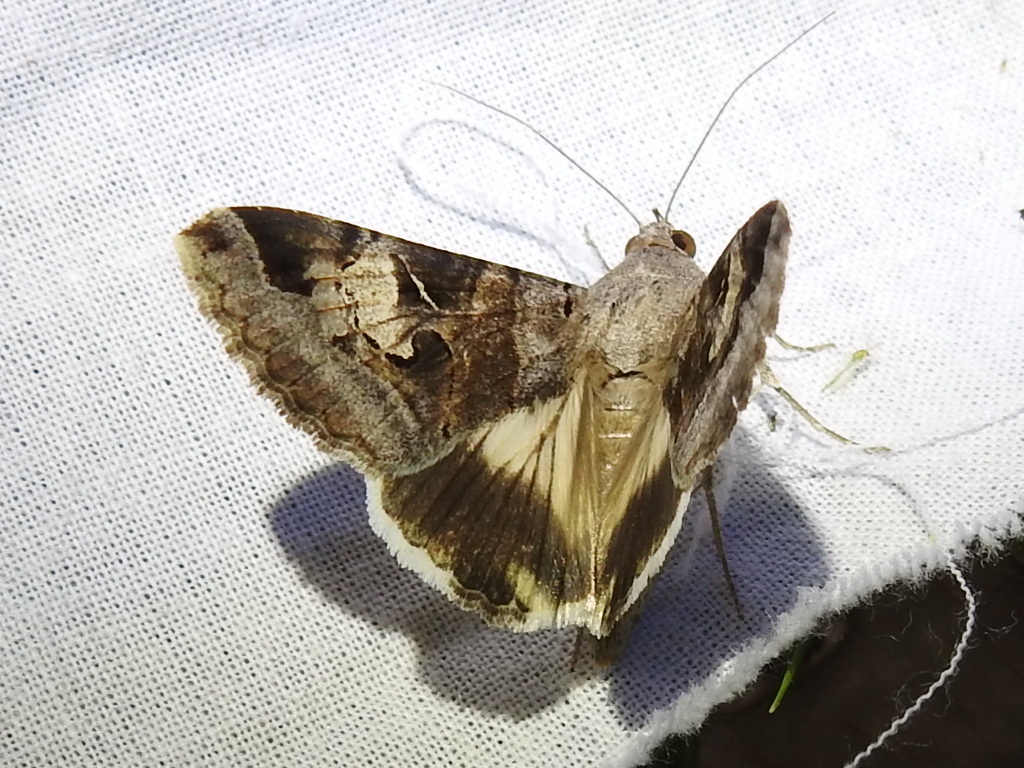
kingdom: Animalia
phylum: Arthropoda
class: Insecta
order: Lepidoptera
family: Erebidae
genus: Melipotis
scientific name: Melipotis indomita
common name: Moth
